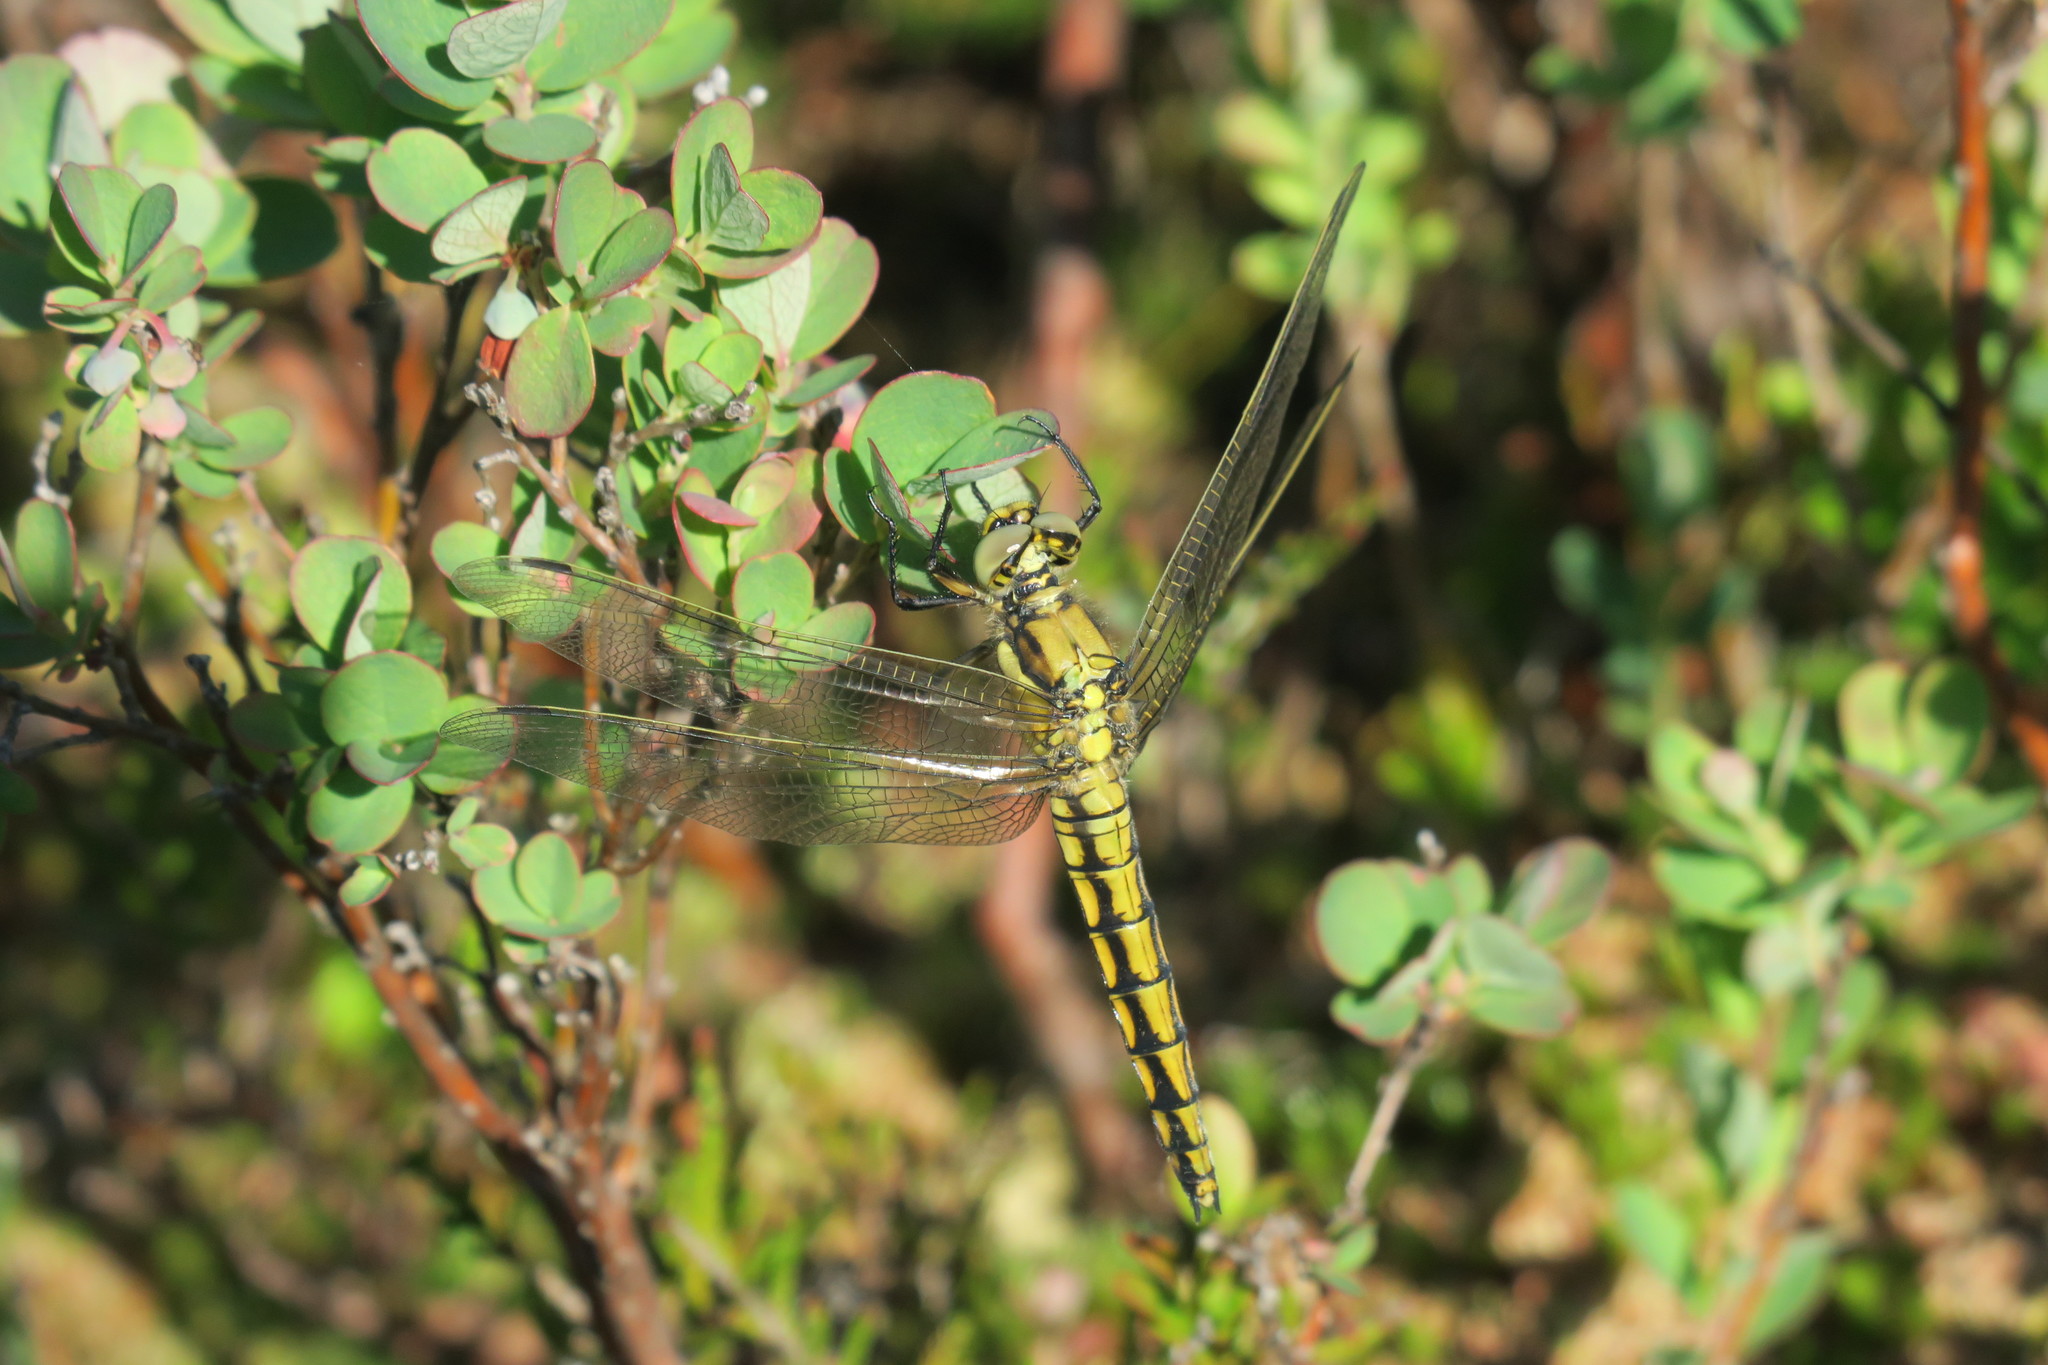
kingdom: Animalia
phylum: Arthropoda
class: Insecta
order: Odonata
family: Libellulidae
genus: Orthetrum
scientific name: Orthetrum cancellatum
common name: Black-tailed skimmer
